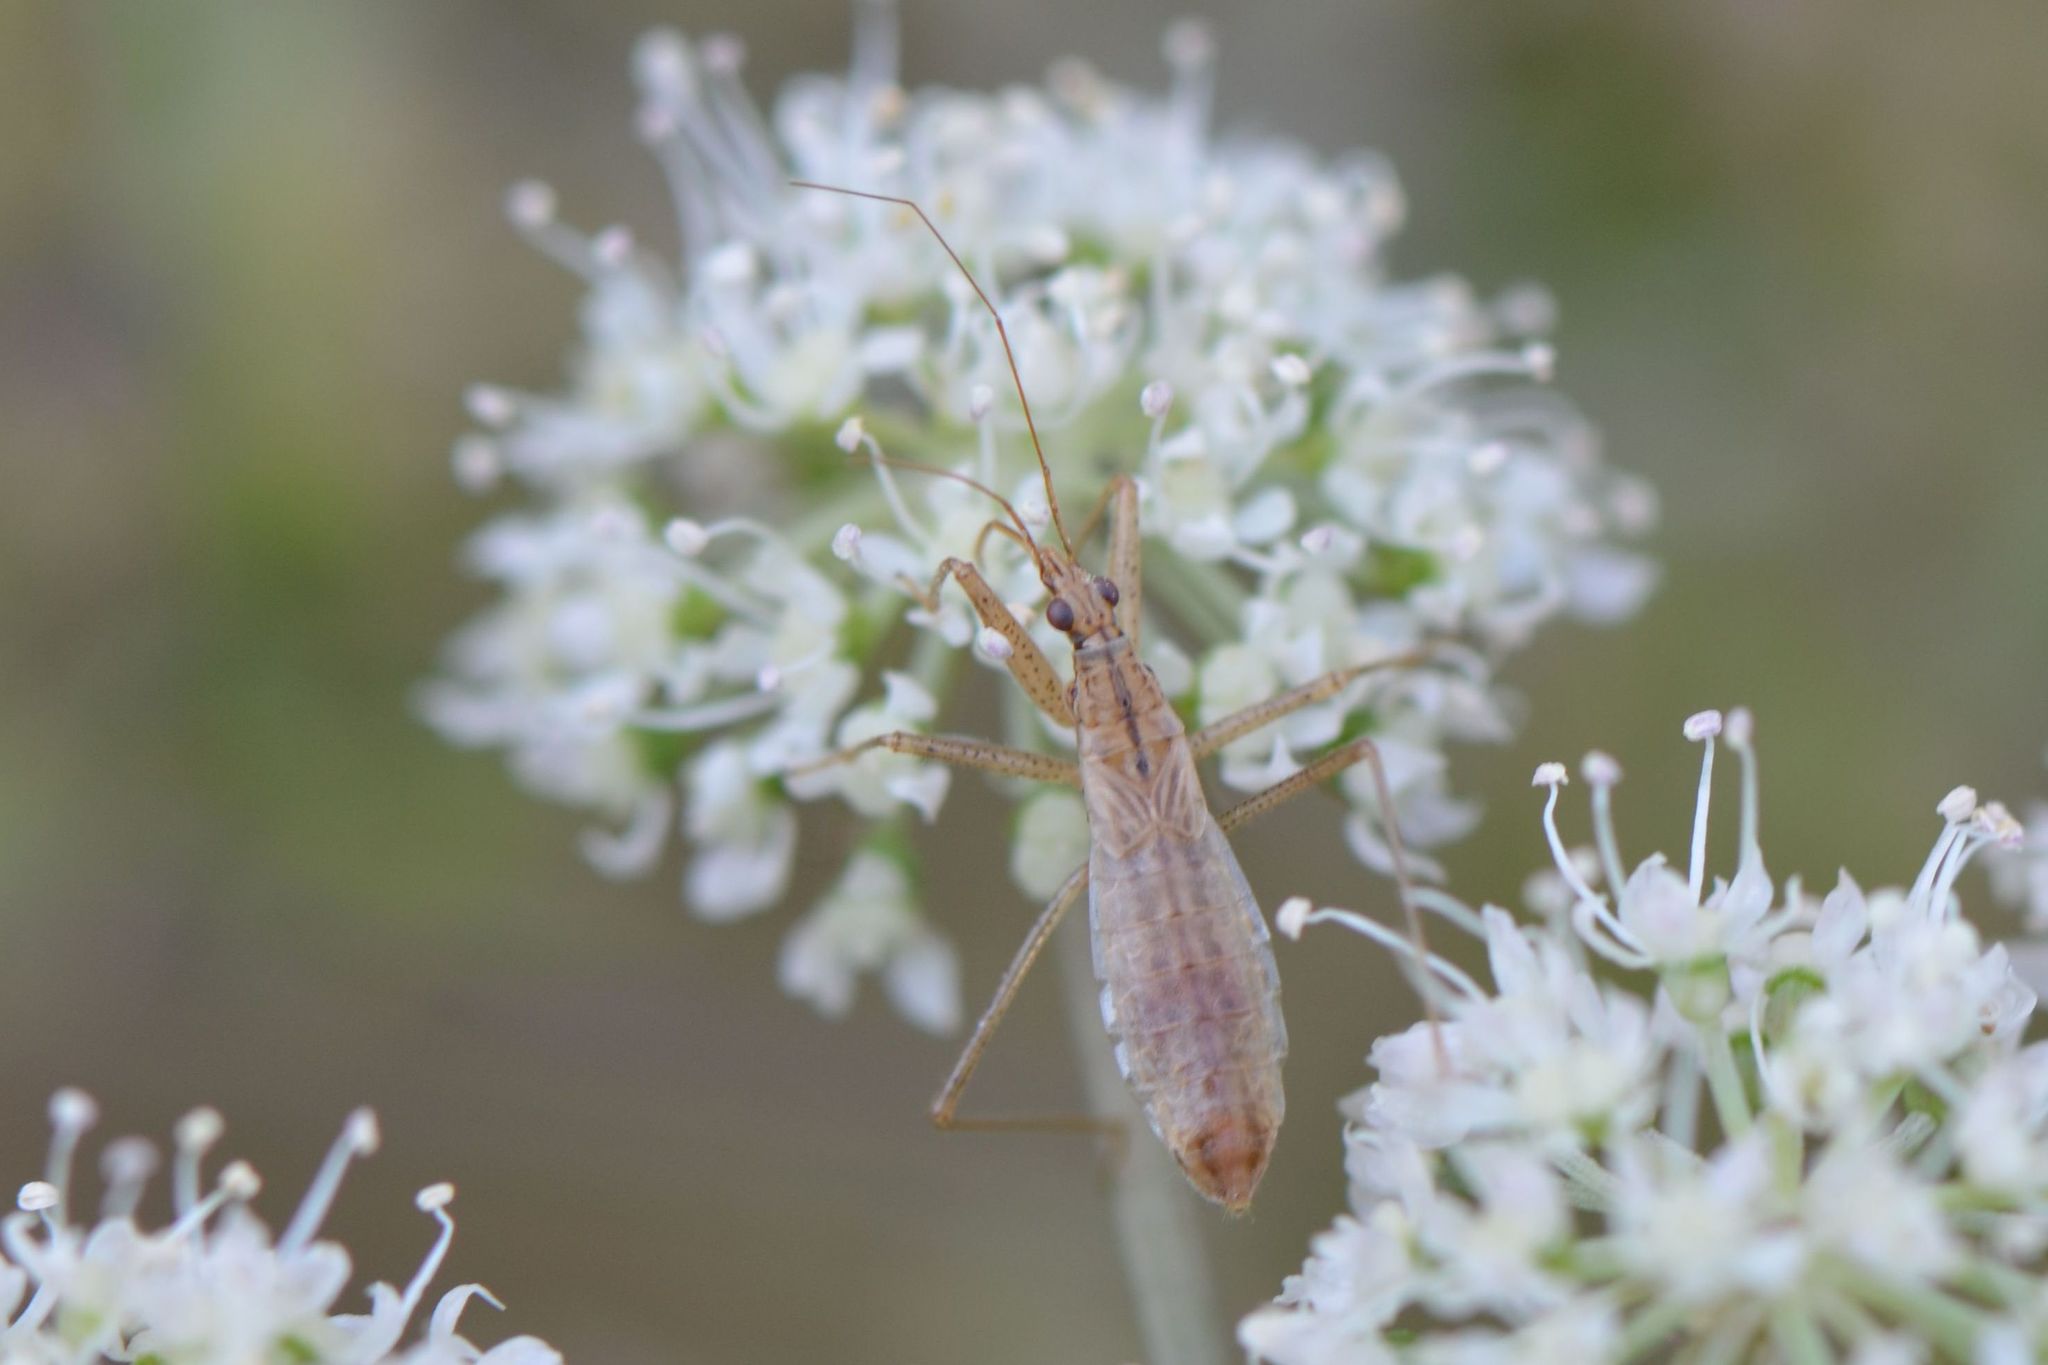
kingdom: Animalia
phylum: Arthropoda
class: Insecta
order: Hemiptera
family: Nabidae
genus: Nabis
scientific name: Nabis limbatus
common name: Marsh damselbug
